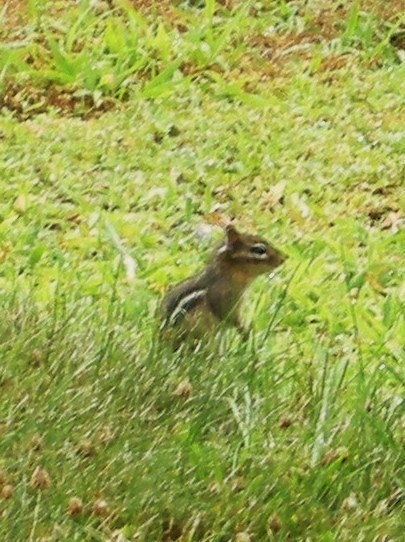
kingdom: Animalia
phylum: Chordata
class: Mammalia
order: Rodentia
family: Sciuridae
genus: Tamias
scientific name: Tamias striatus
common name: Eastern chipmunk
